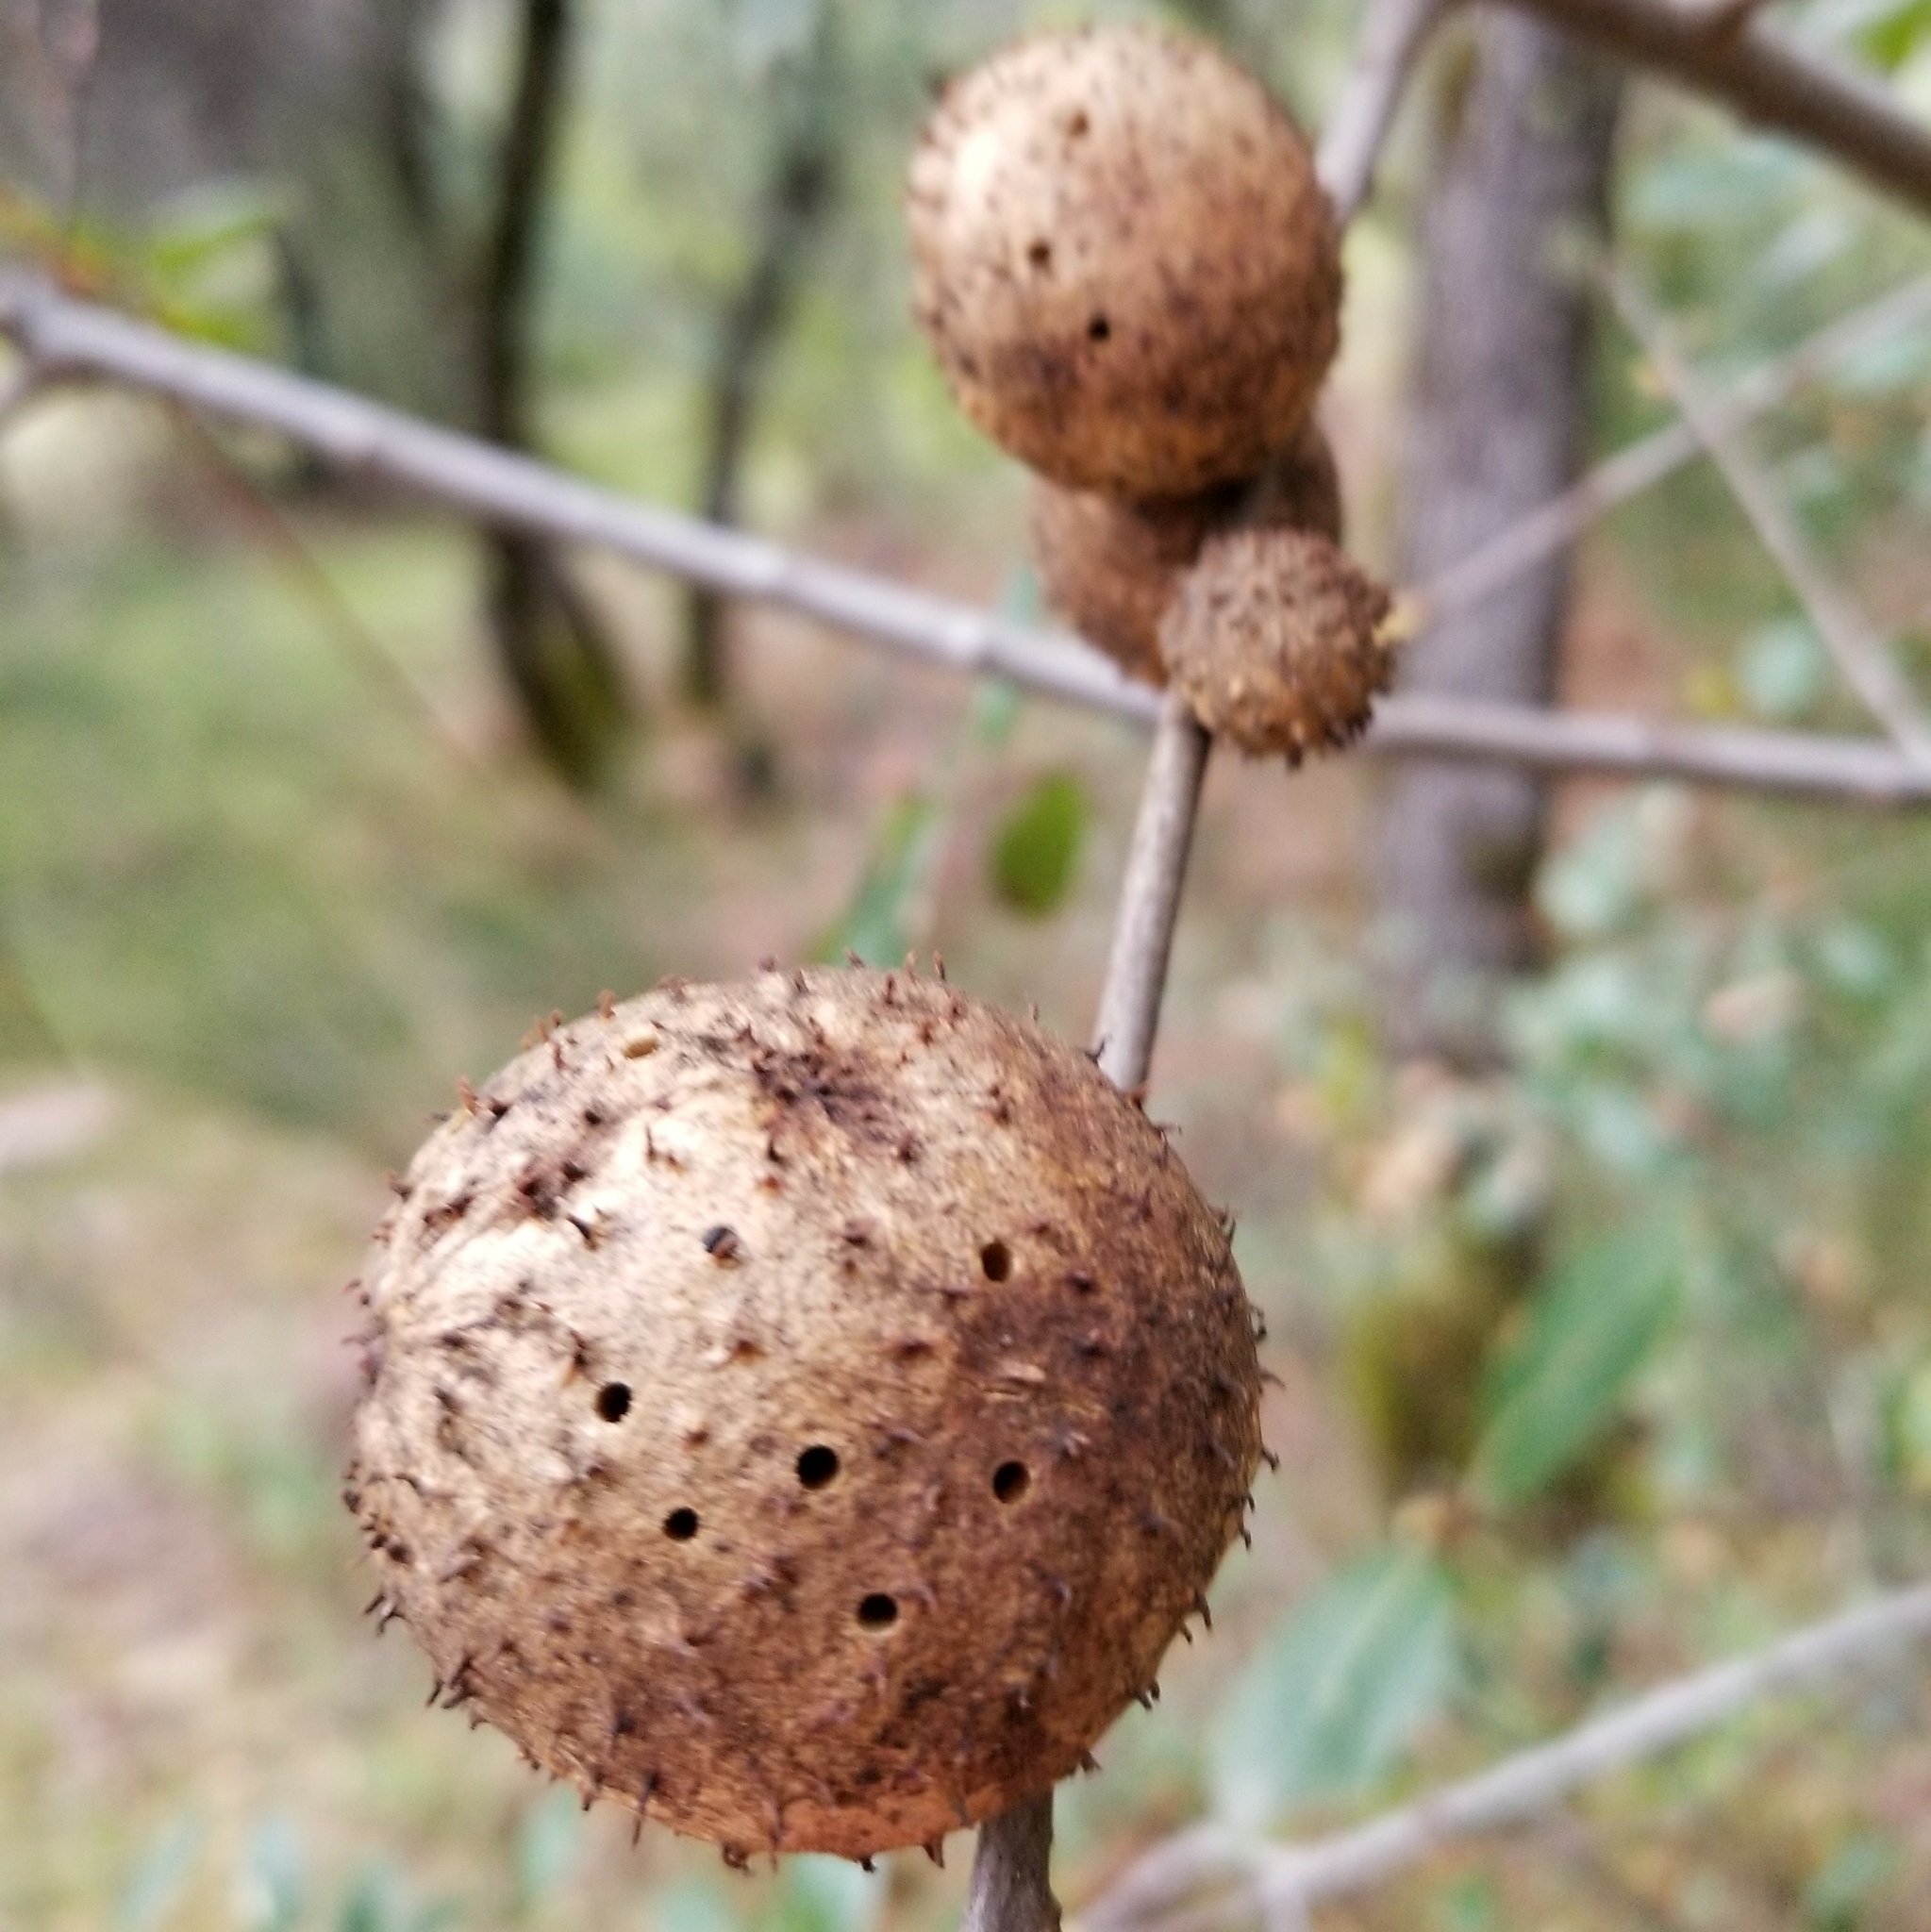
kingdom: Animalia
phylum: Arthropoda
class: Insecta
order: Hymenoptera
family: Cynipidae
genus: Amphibolips
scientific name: Amphibolips quercuspomiformis
